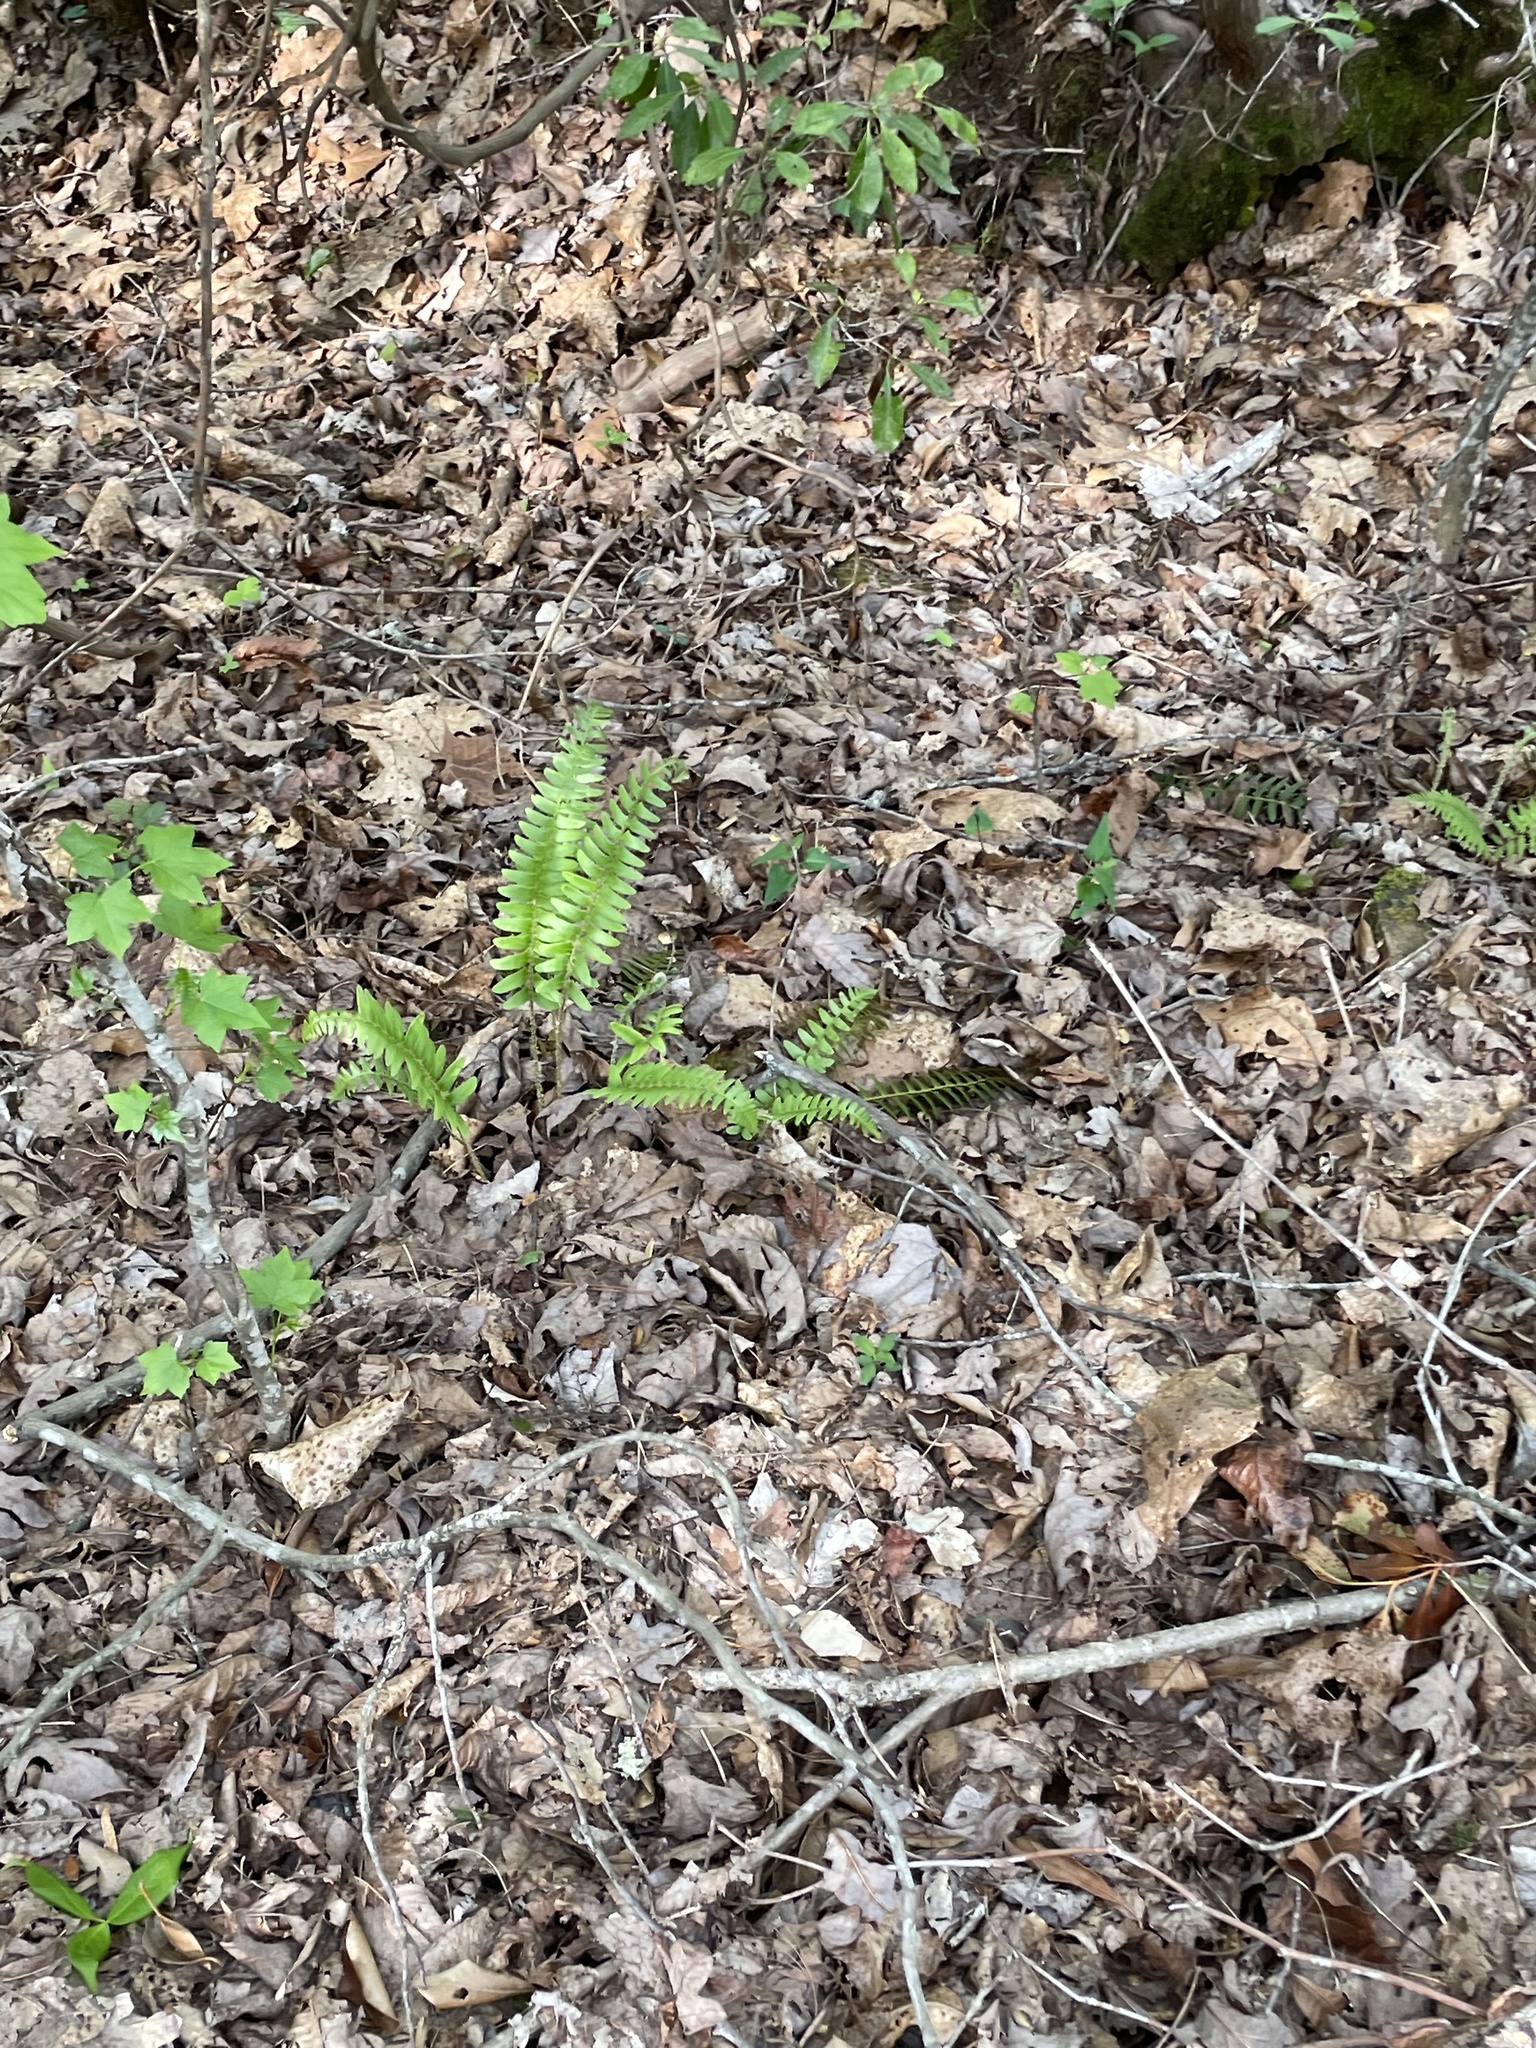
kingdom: Plantae
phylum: Tracheophyta
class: Polypodiopsida
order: Polypodiales
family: Dryopteridaceae
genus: Polystichum
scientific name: Polystichum acrostichoides
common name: Christmas fern
